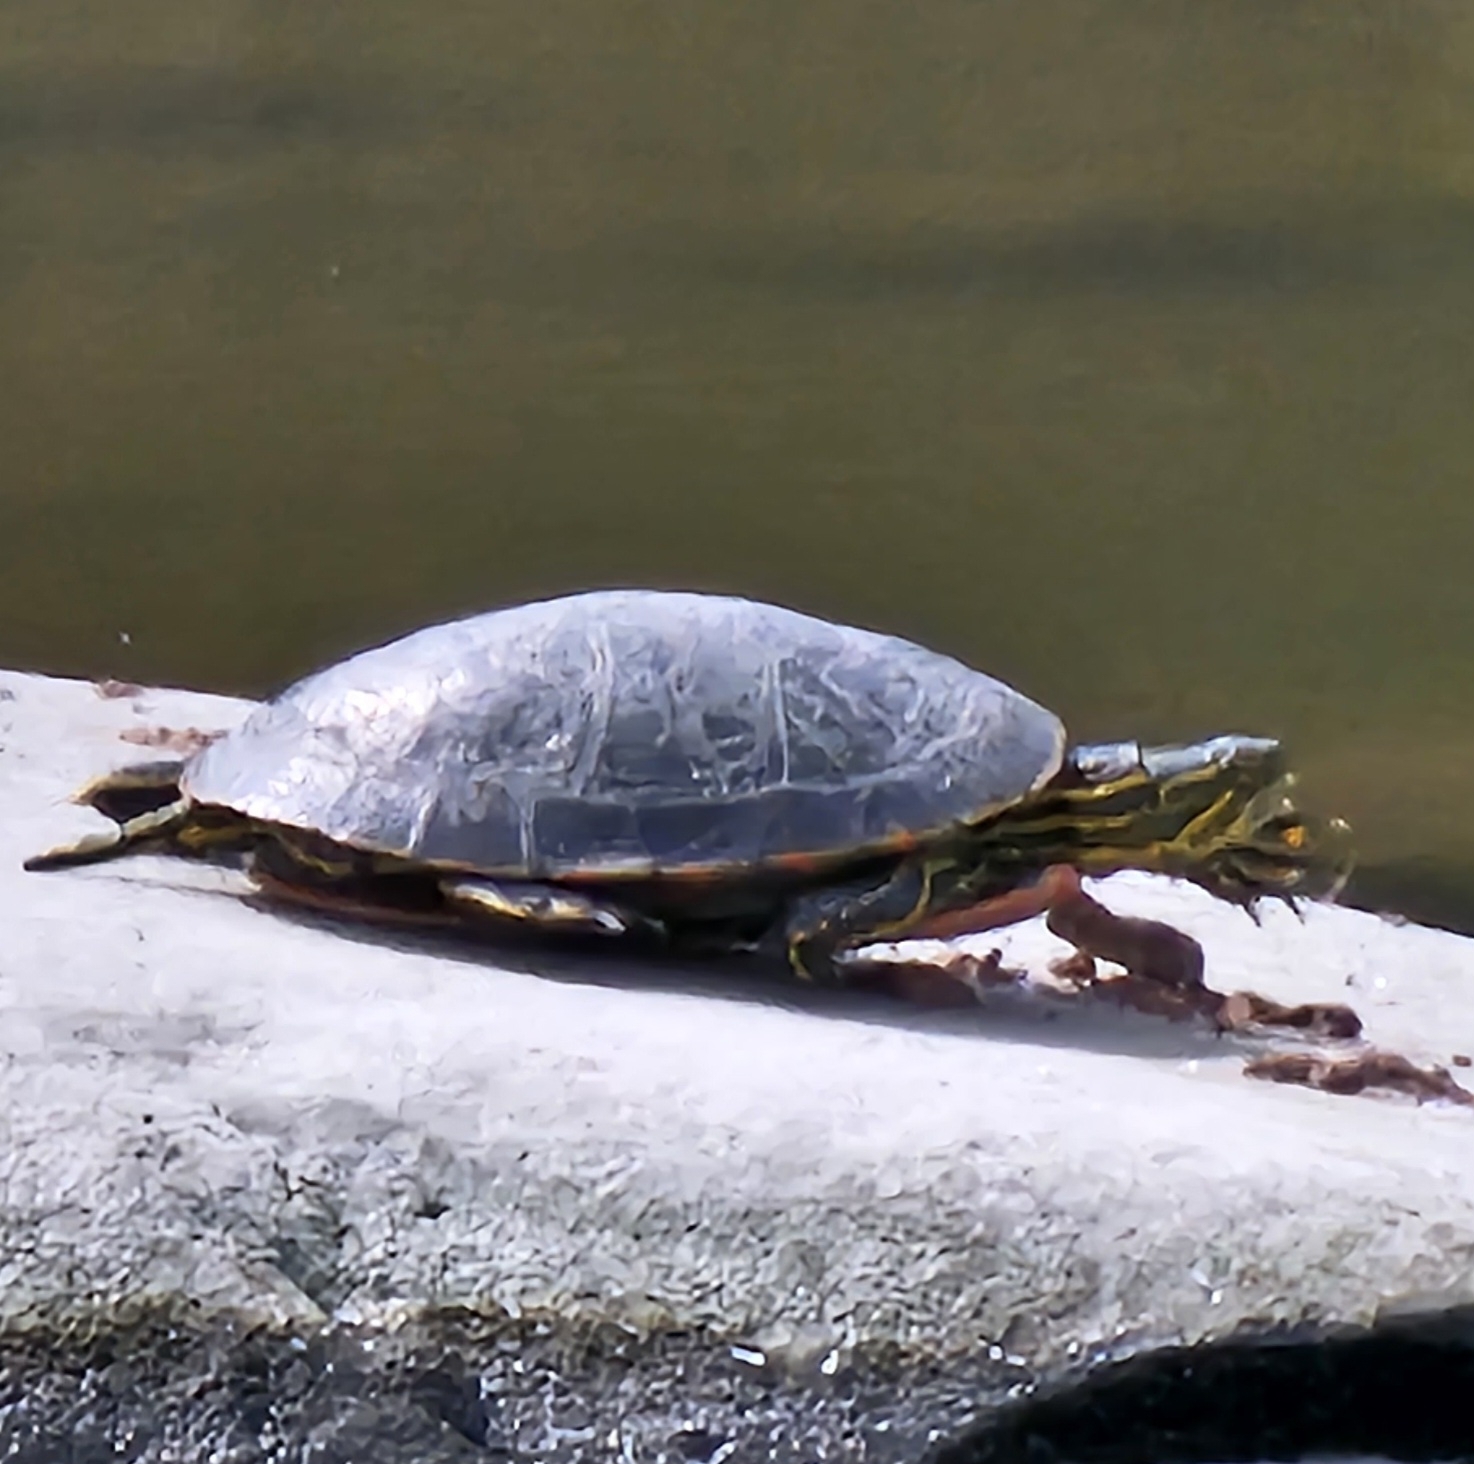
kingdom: Animalia
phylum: Chordata
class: Testudines
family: Emydidae
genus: Chrysemys
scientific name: Chrysemys picta
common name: Painted turtle
